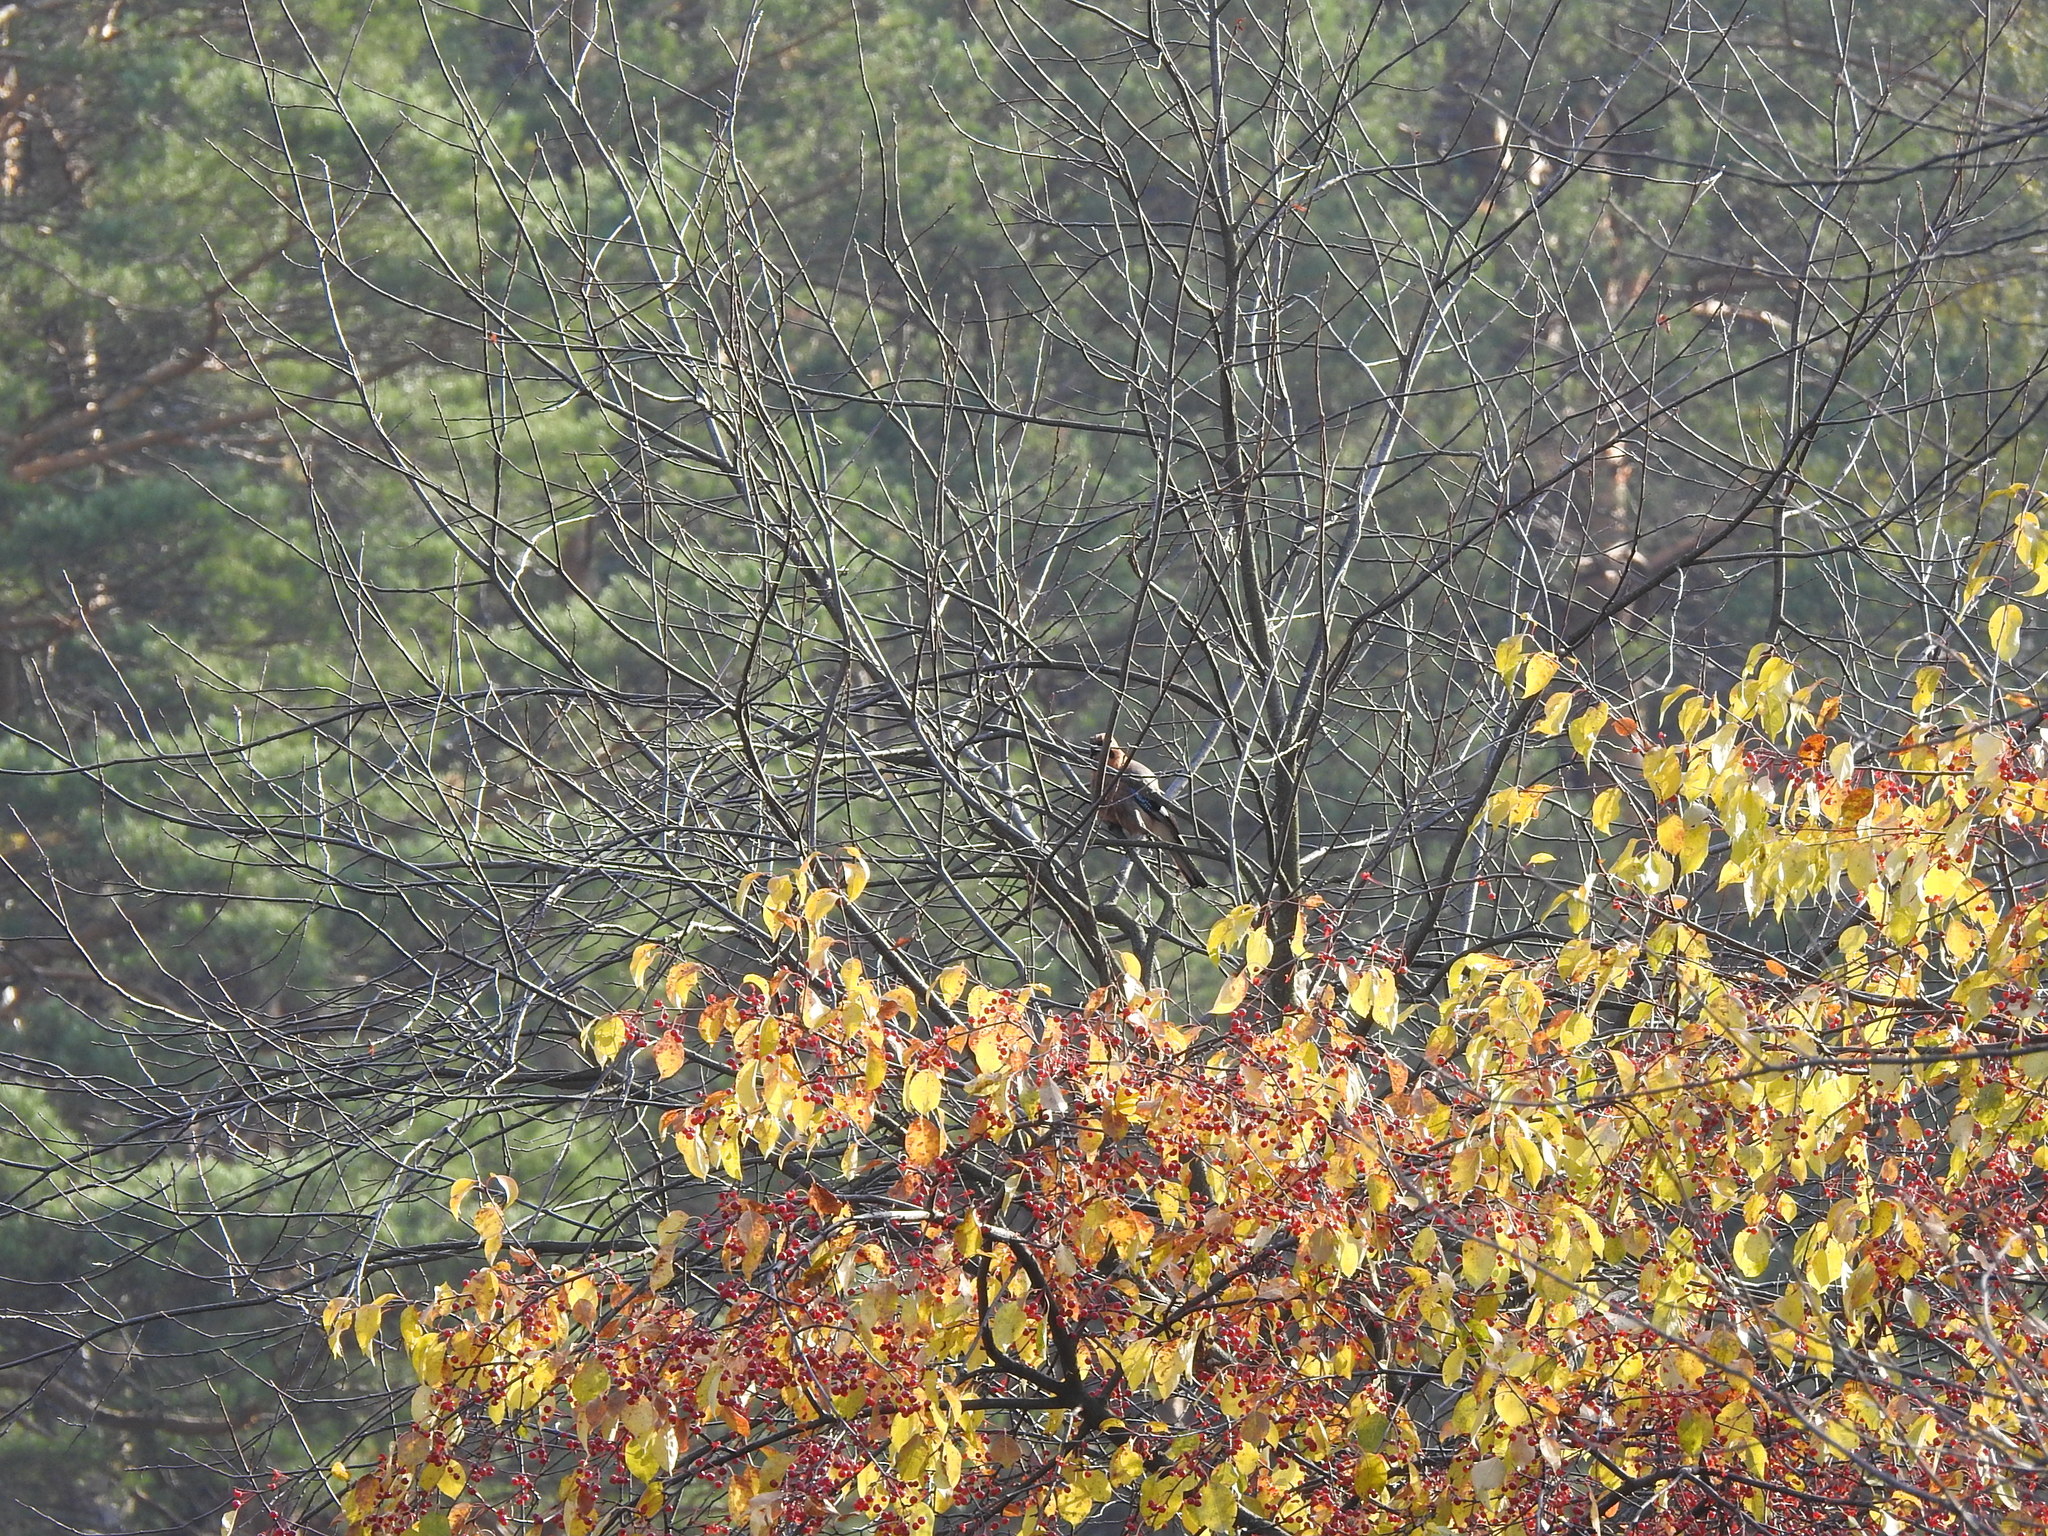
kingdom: Animalia
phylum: Chordata
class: Aves
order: Passeriformes
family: Corvidae
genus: Garrulus
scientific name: Garrulus glandarius
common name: Eurasian jay
